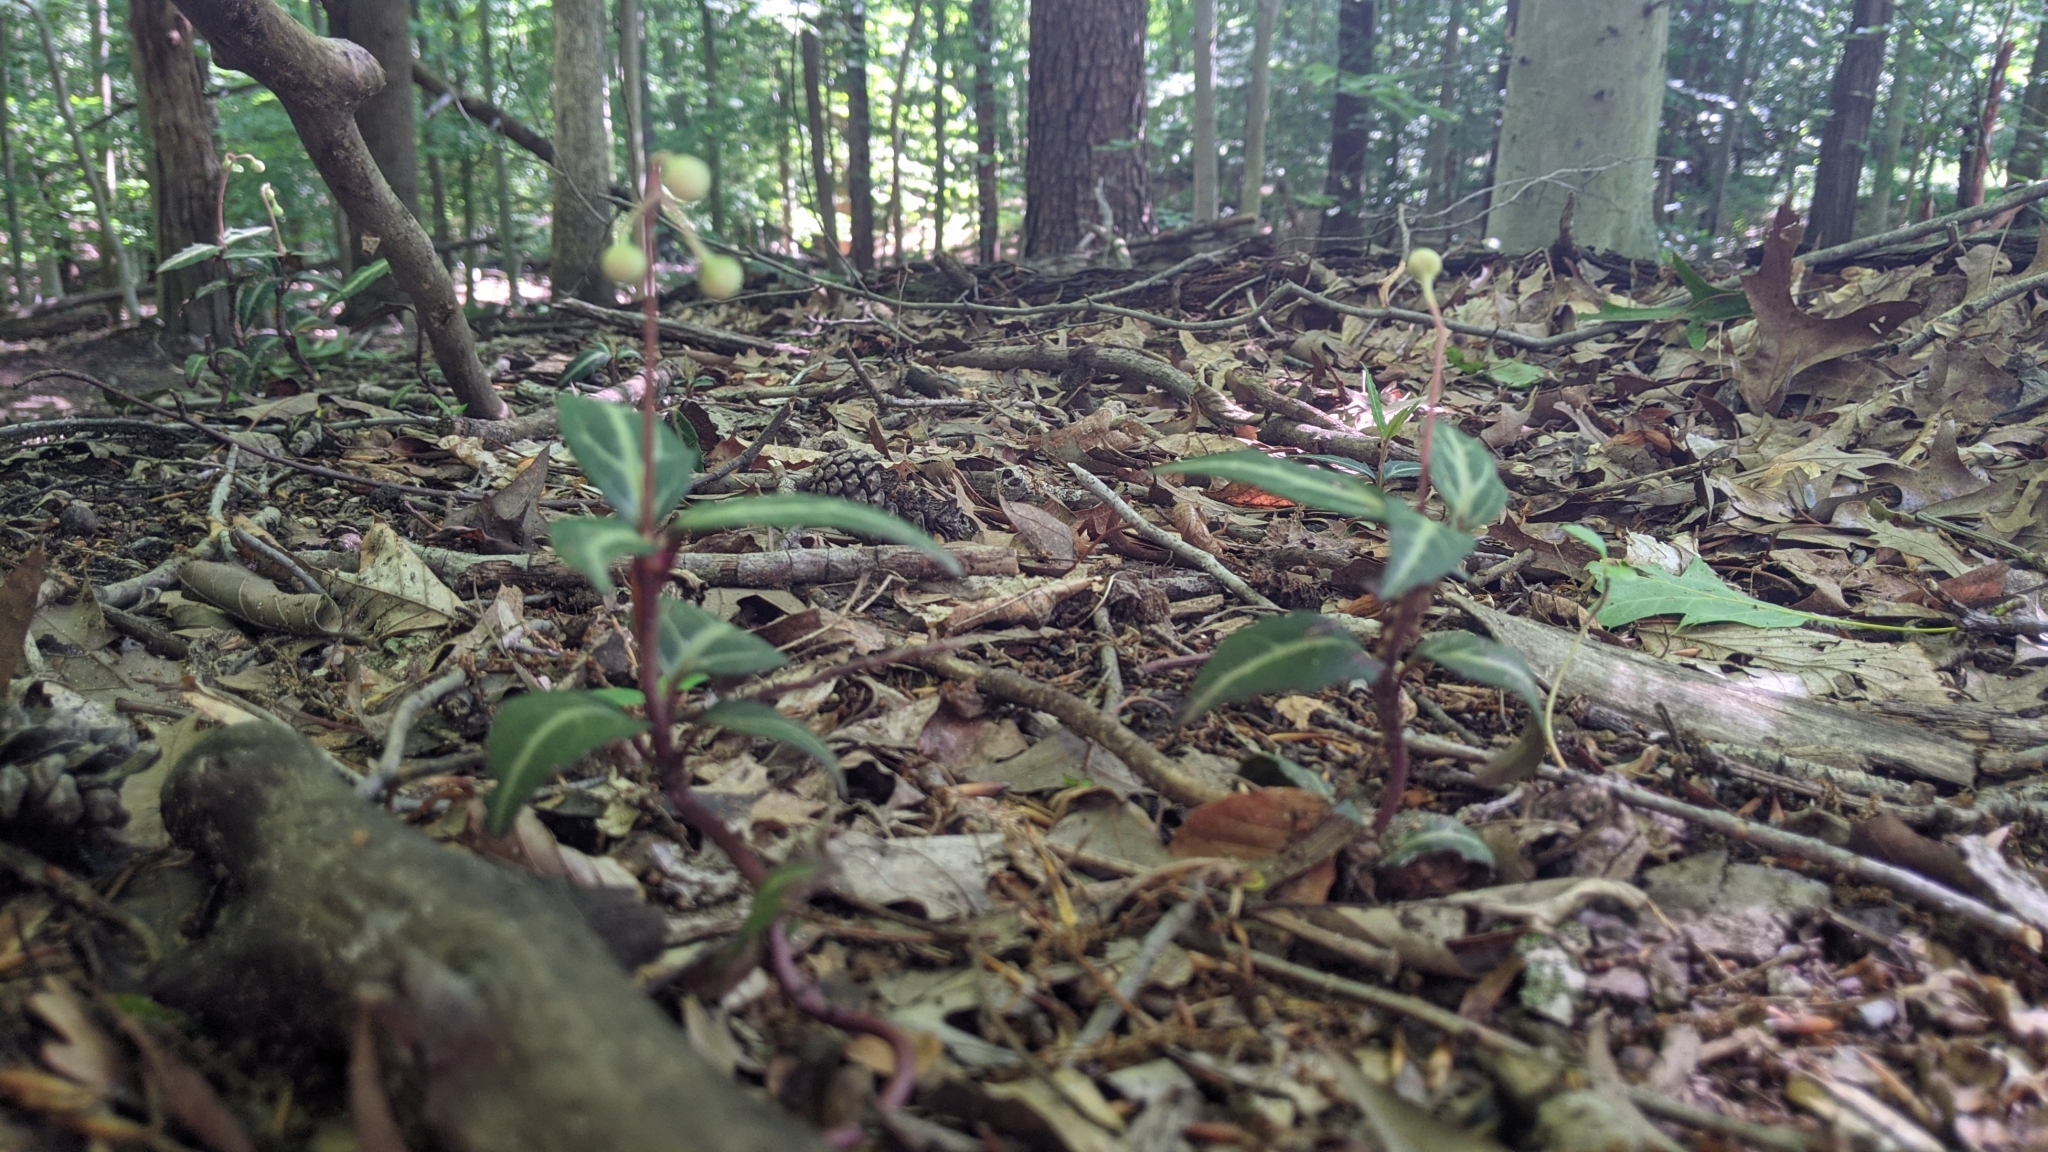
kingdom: Plantae
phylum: Tracheophyta
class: Magnoliopsida
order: Ericales
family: Ericaceae
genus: Chimaphila
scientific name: Chimaphila maculata
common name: Spotted pipsissewa
